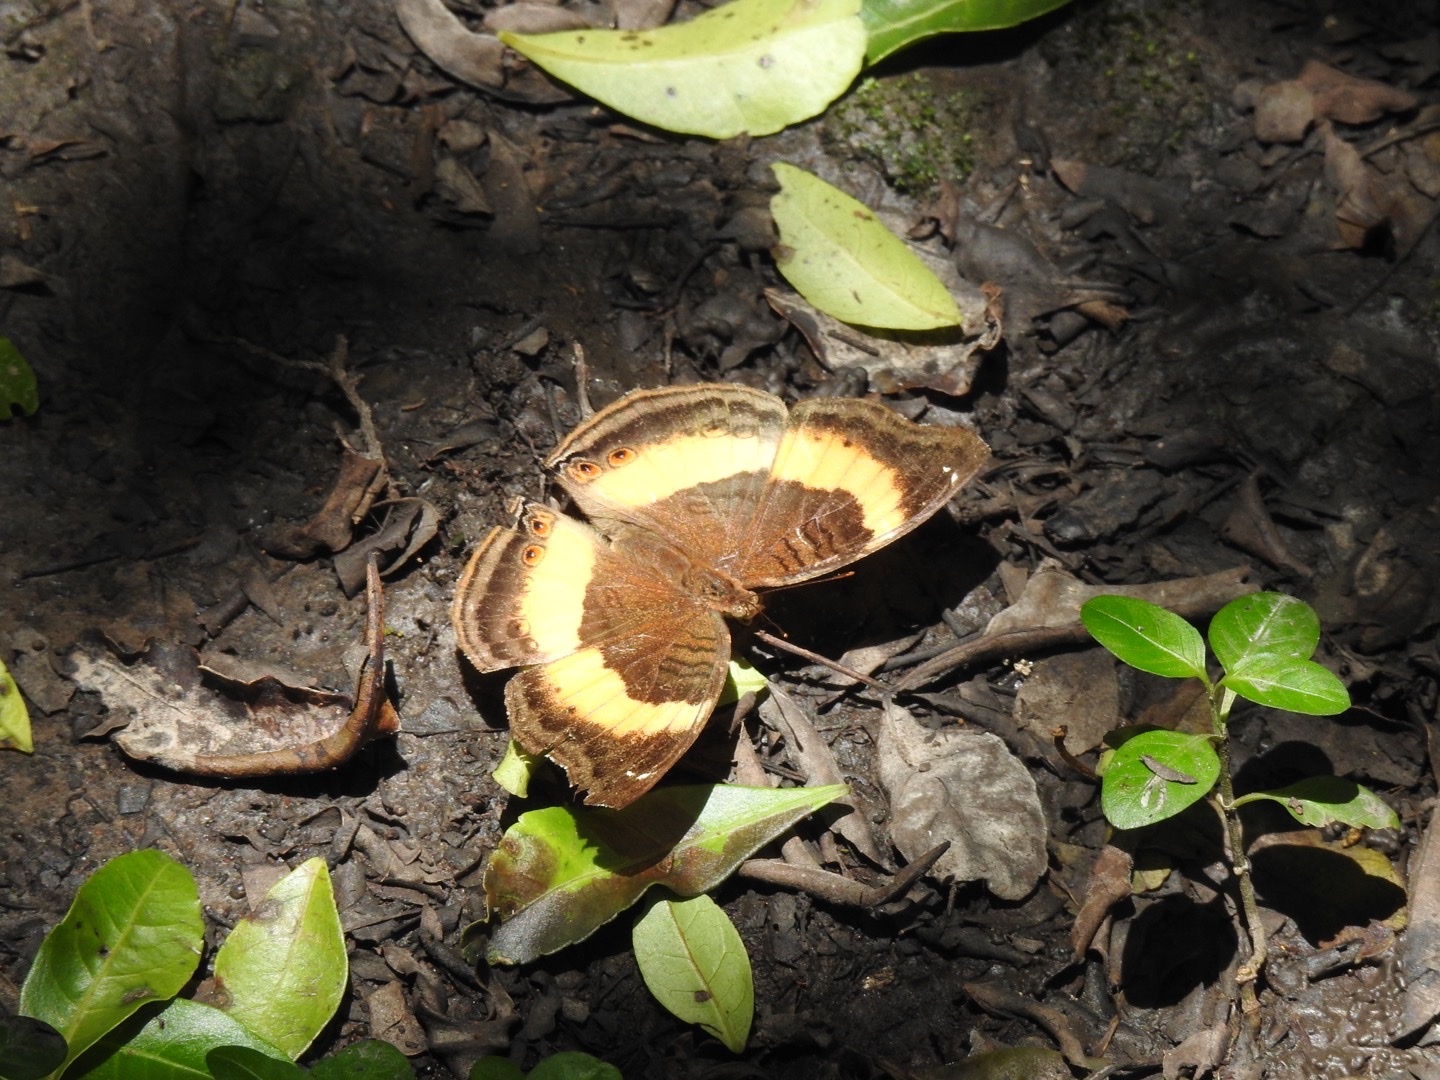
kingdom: Animalia
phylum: Arthropoda
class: Insecta
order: Lepidoptera
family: Nymphalidae
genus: Junonia
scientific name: Junonia terea
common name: Soldier pansy
